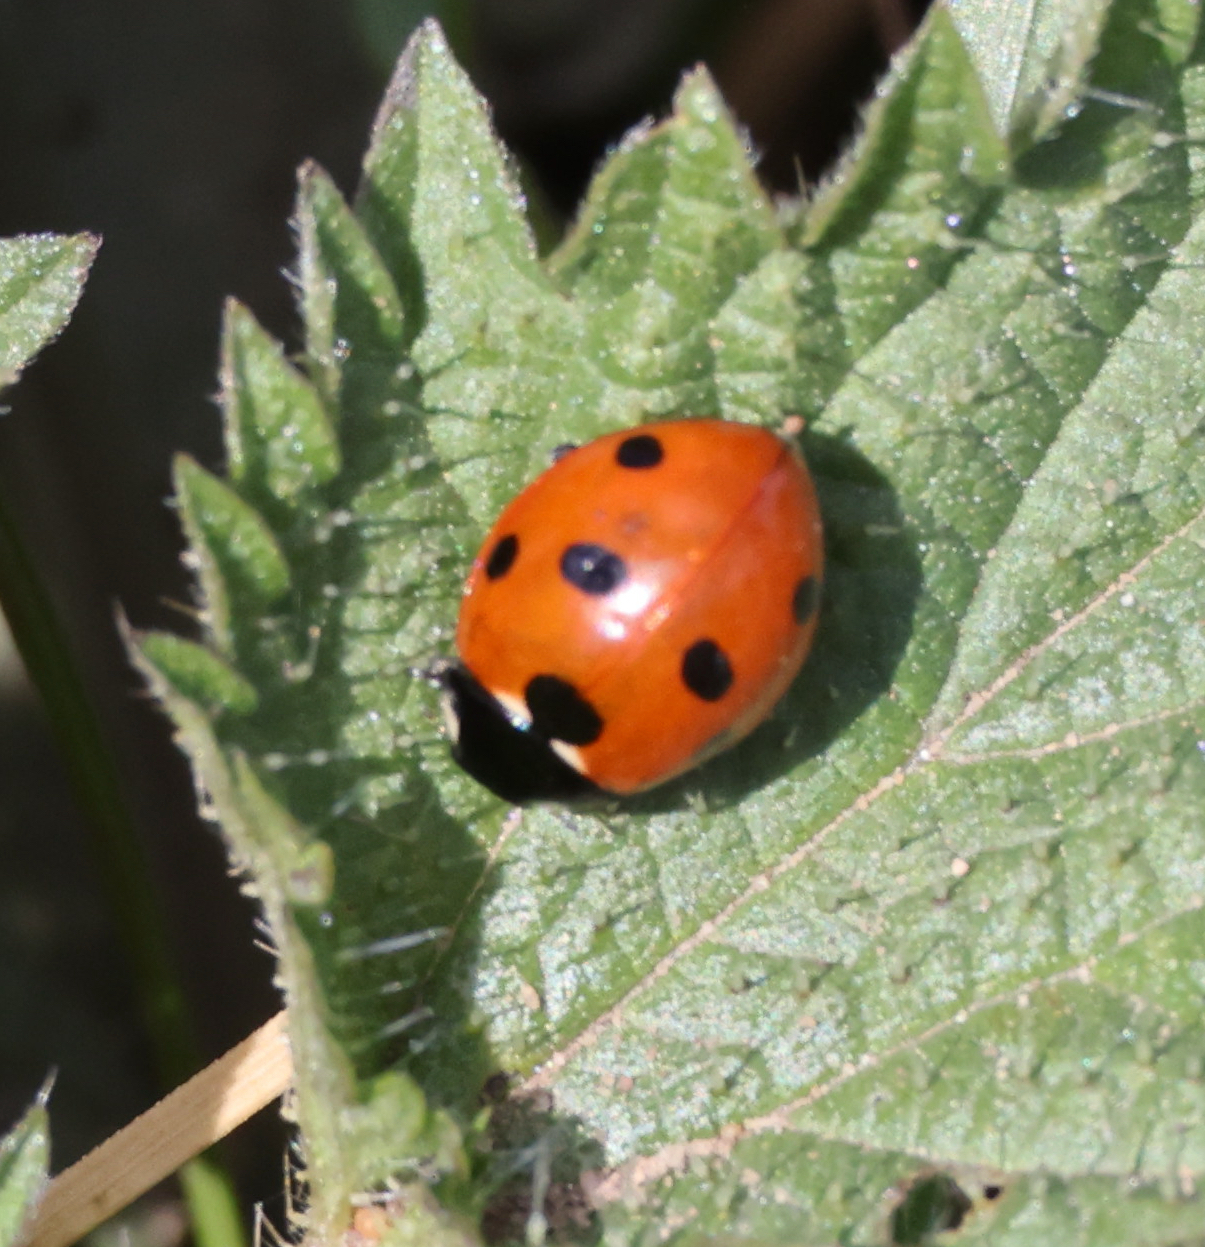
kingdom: Animalia
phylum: Arthropoda
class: Insecta
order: Coleoptera
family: Coccinellidae
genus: Coccinella
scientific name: Coccinella septempunctata
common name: Sevenspotted lady beetle
